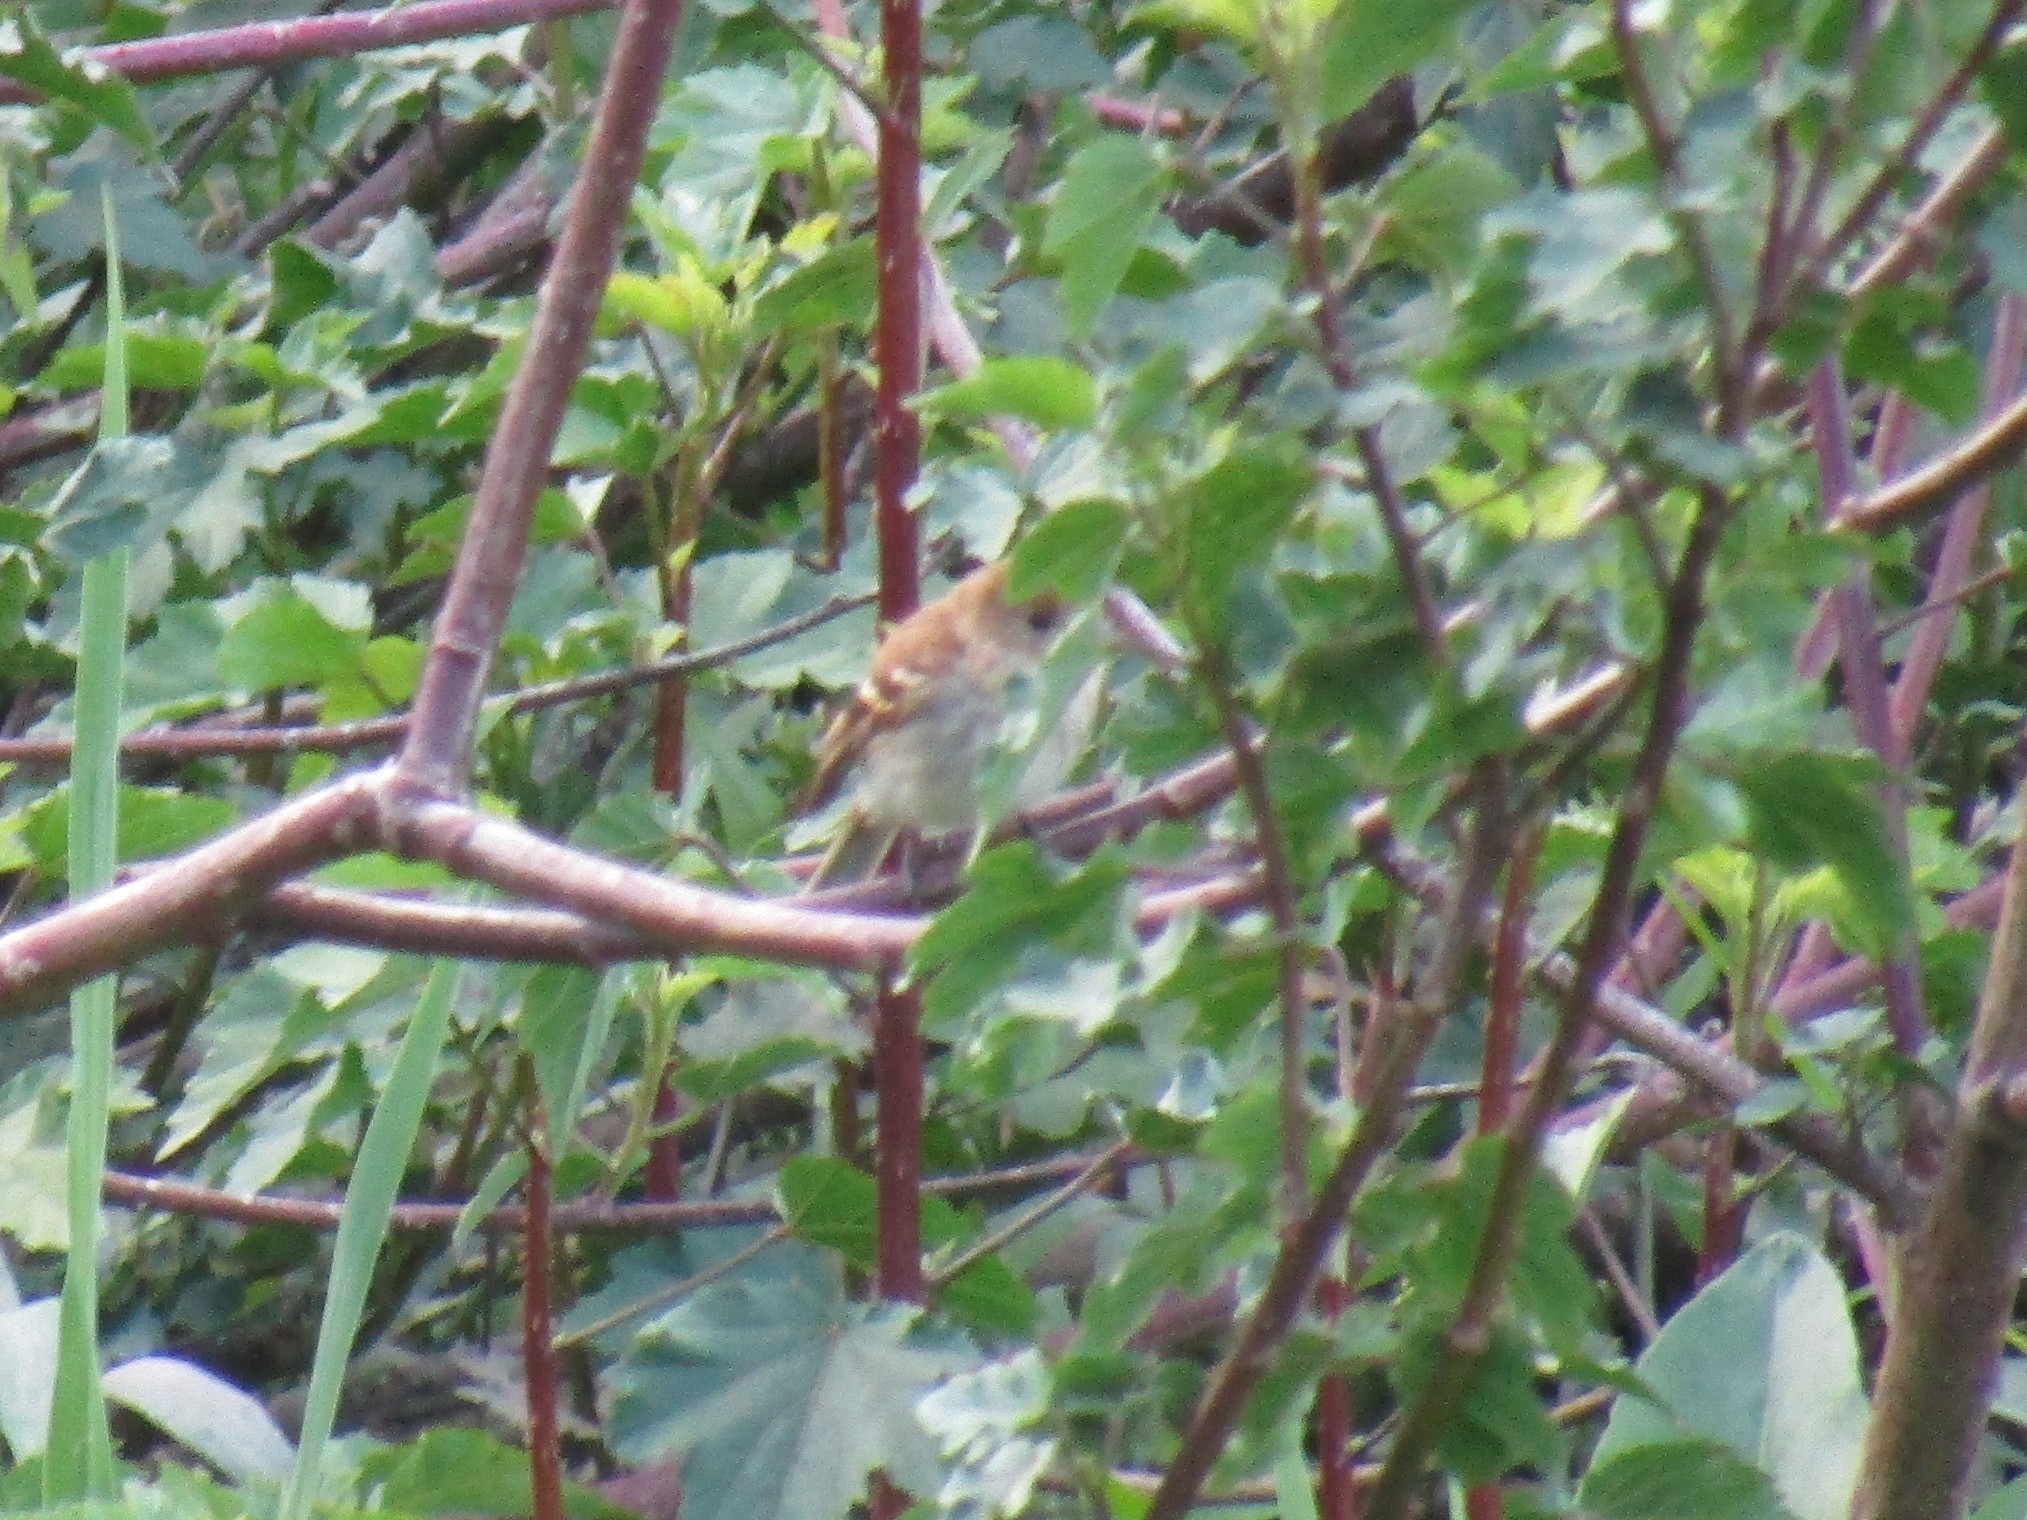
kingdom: Animalia
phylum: Chordata
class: Aves
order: Passeriformes
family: Tyrannidae
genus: Myiophobus
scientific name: Myiophobus fasciatus
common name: Bran-colored flycatcher
